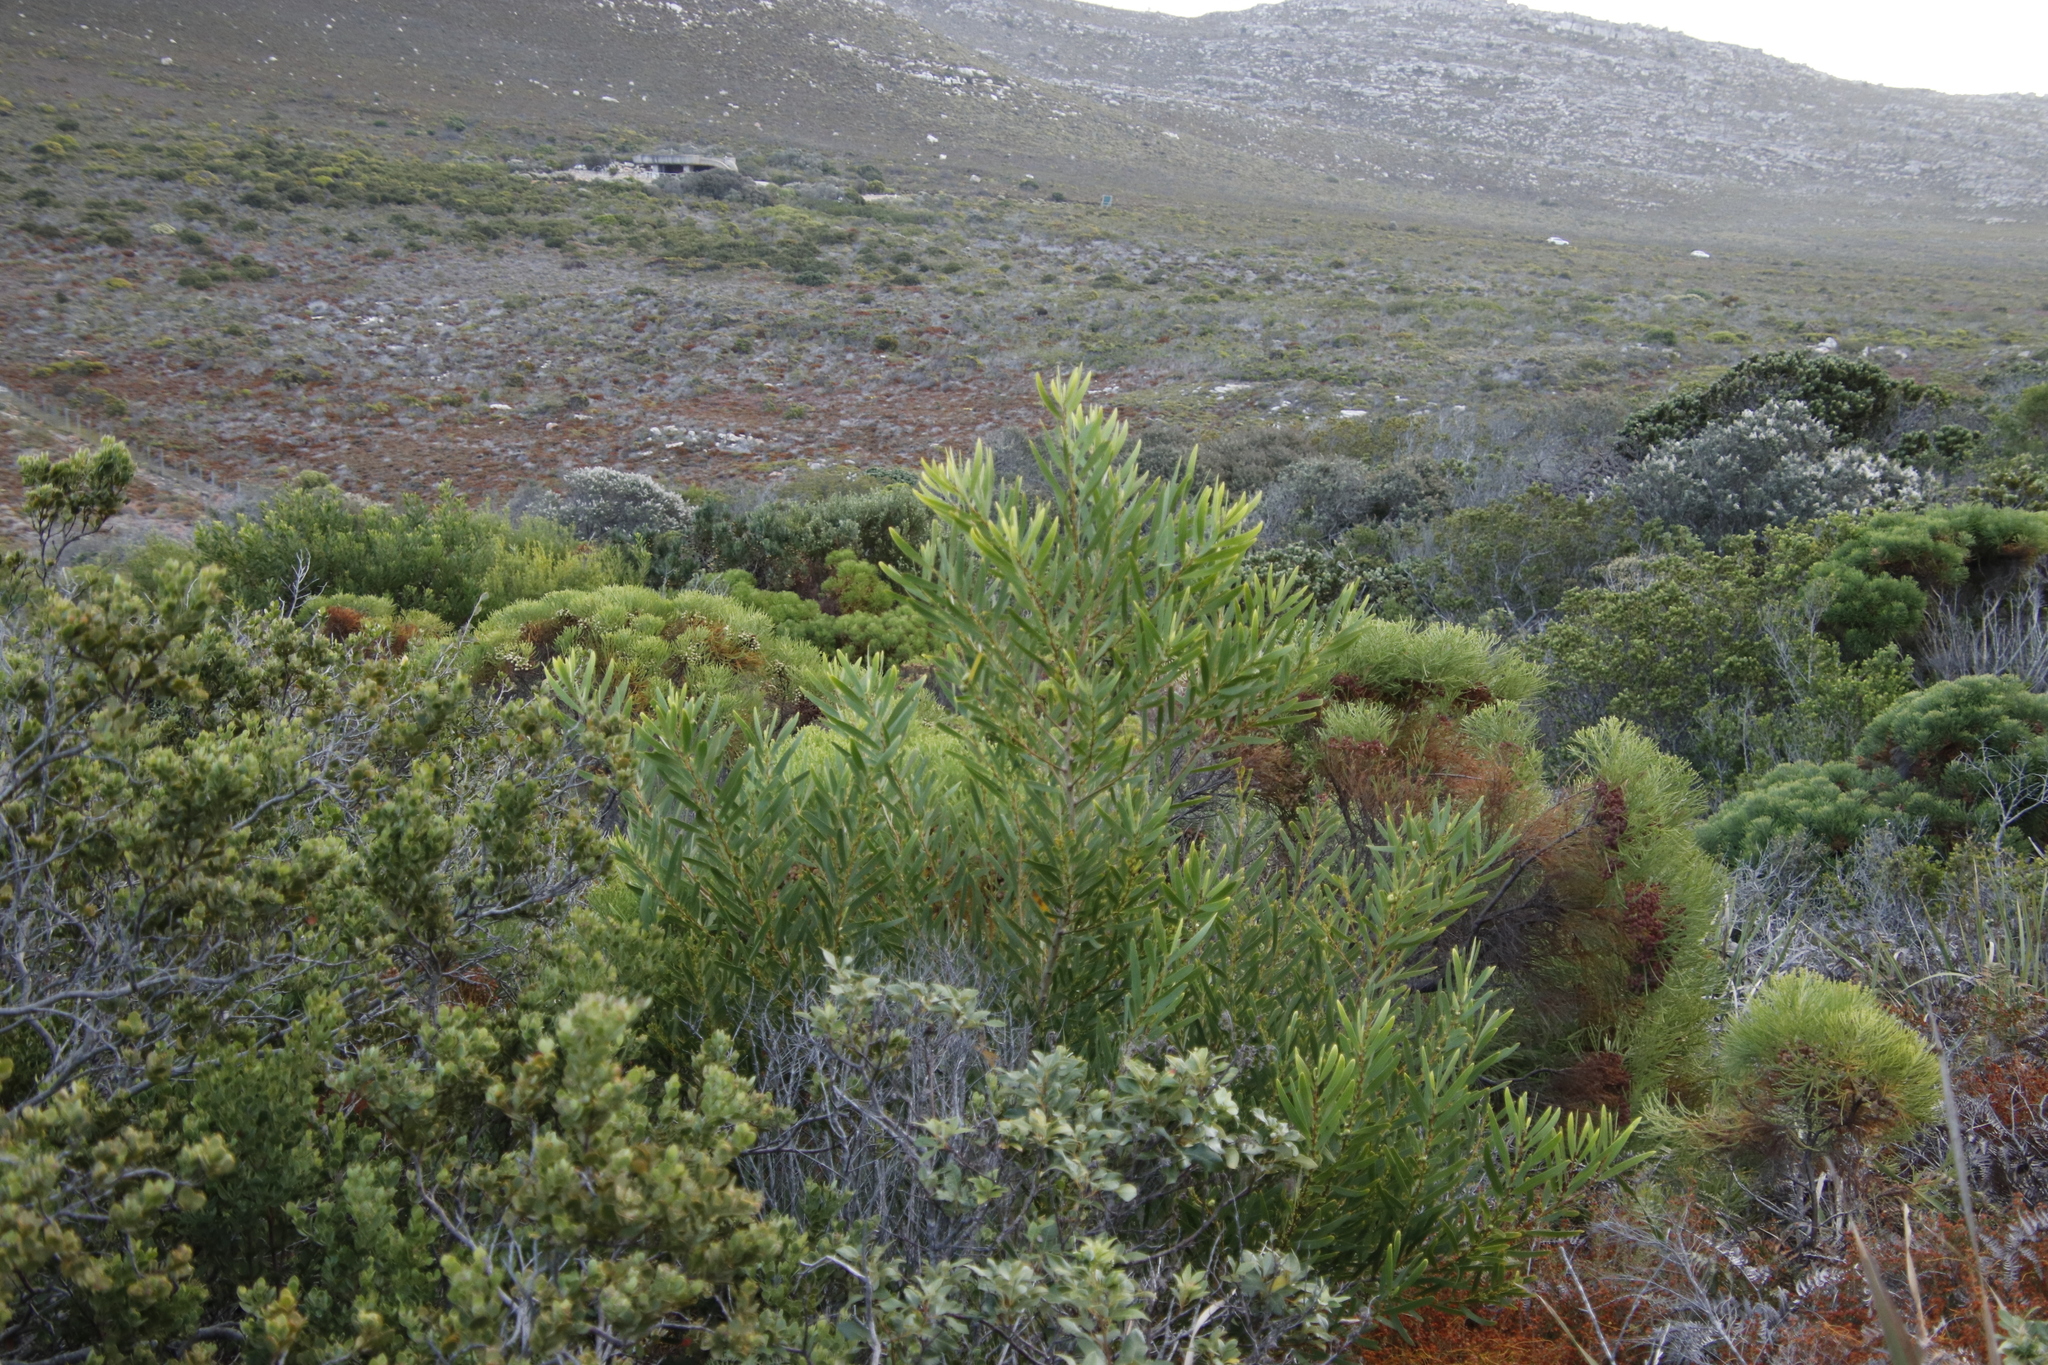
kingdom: Plantae
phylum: Tracheophyta
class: Magnoliopsida
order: Fabales
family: Fabaceae
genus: Acacia
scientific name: Acacia longifolia
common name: Sydney golden wattle
